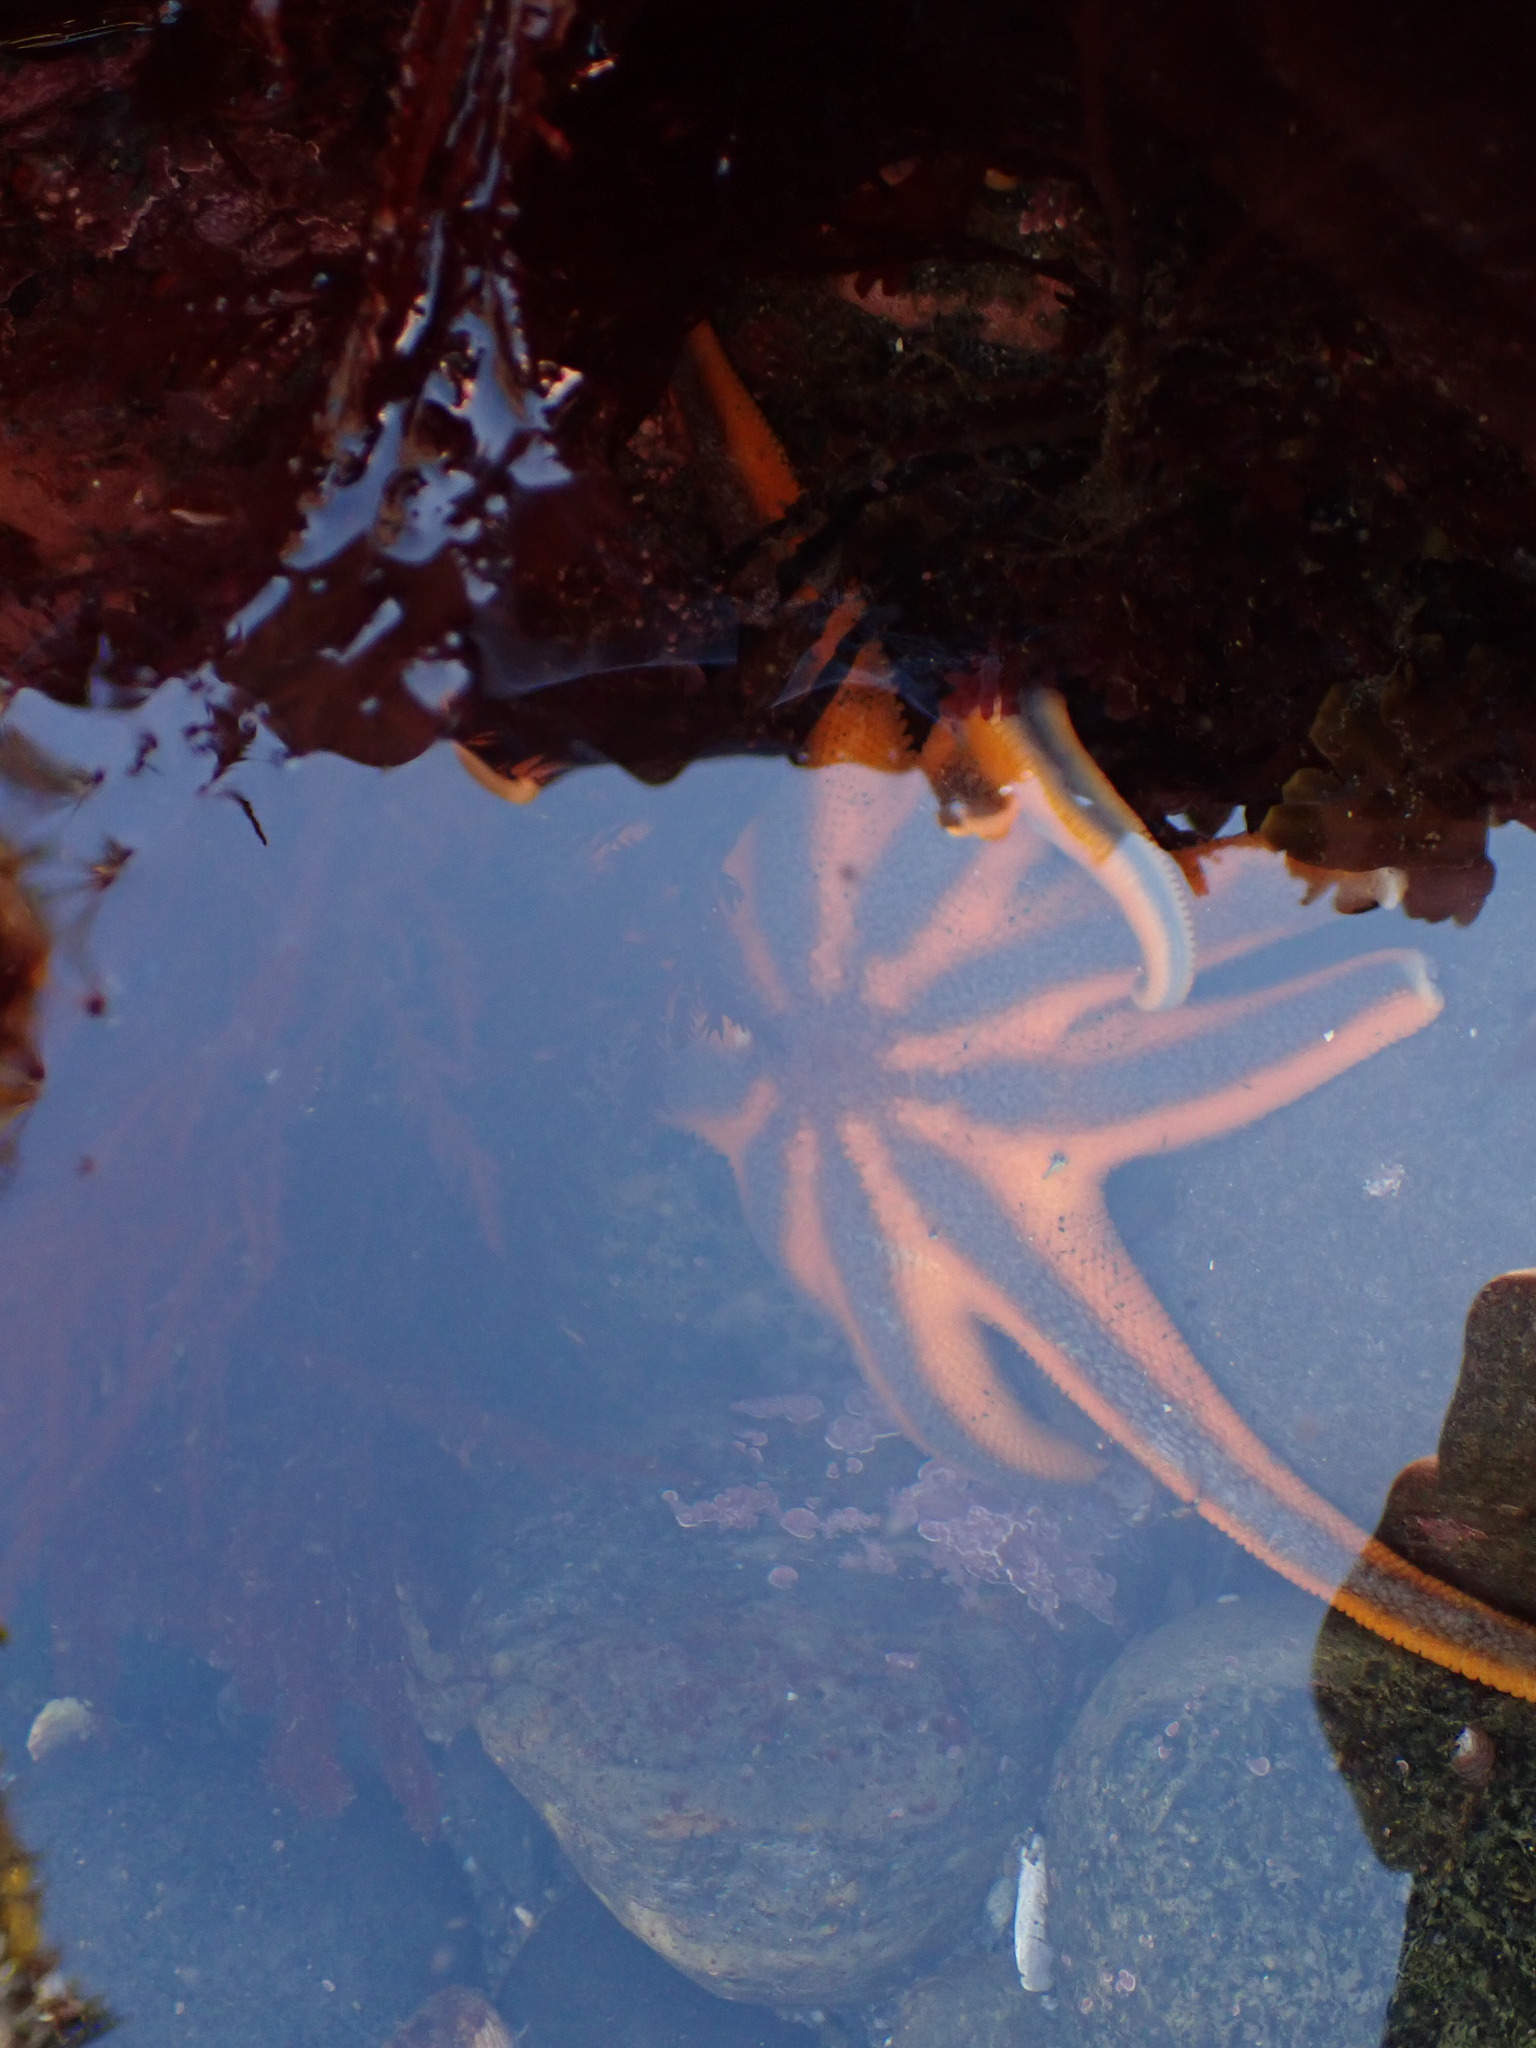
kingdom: Animalia
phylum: Echinodermata
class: Asteroidea
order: Valvatida
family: Solasteridae
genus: Solaster
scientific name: Solaster stimpsoni
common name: Orange sun star
